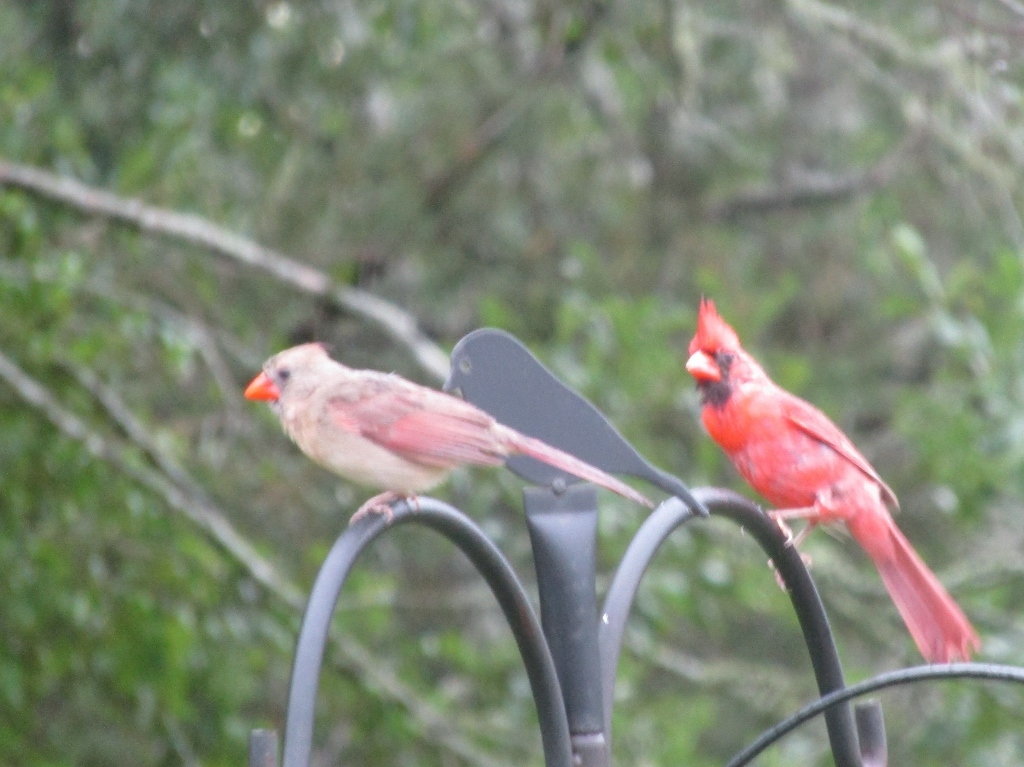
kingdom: Animalia
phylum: Chordata
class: Aves
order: Passeriformes
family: Cardinalidae
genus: Cardinalis
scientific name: Cardinalis cardinalis
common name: Northern cardinal
